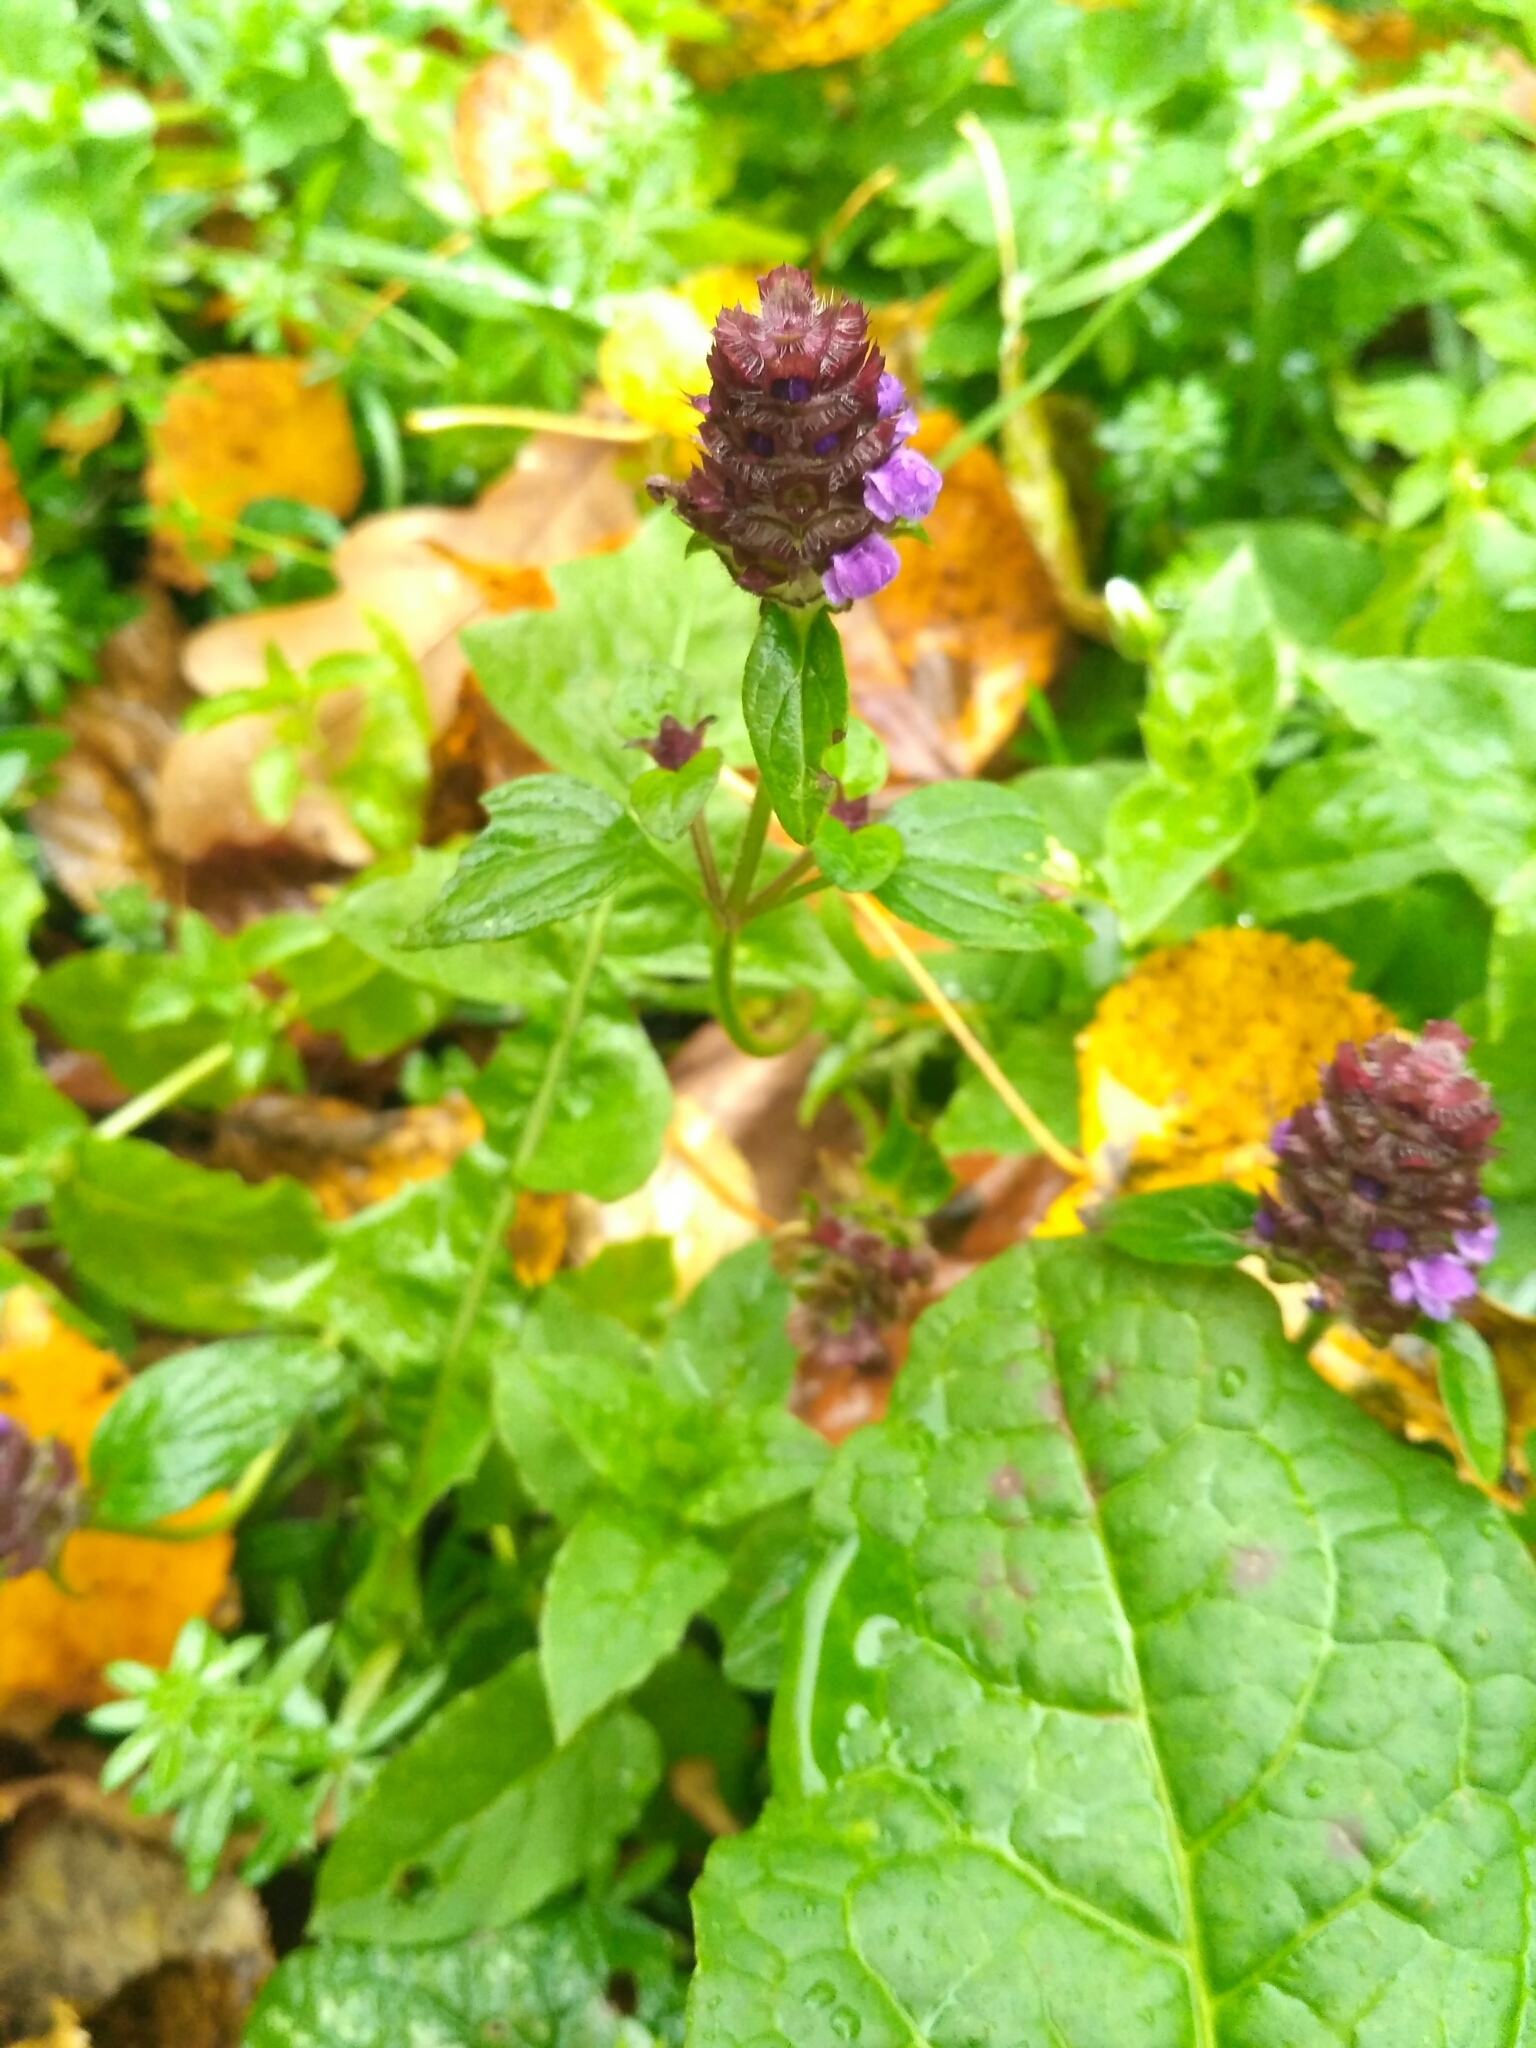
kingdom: Plantae
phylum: Tracheophyta
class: Magnoliopsida
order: Lamiales
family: Lamiaceae
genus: Prunella
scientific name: Prunella vulgaris
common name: Heal-all
